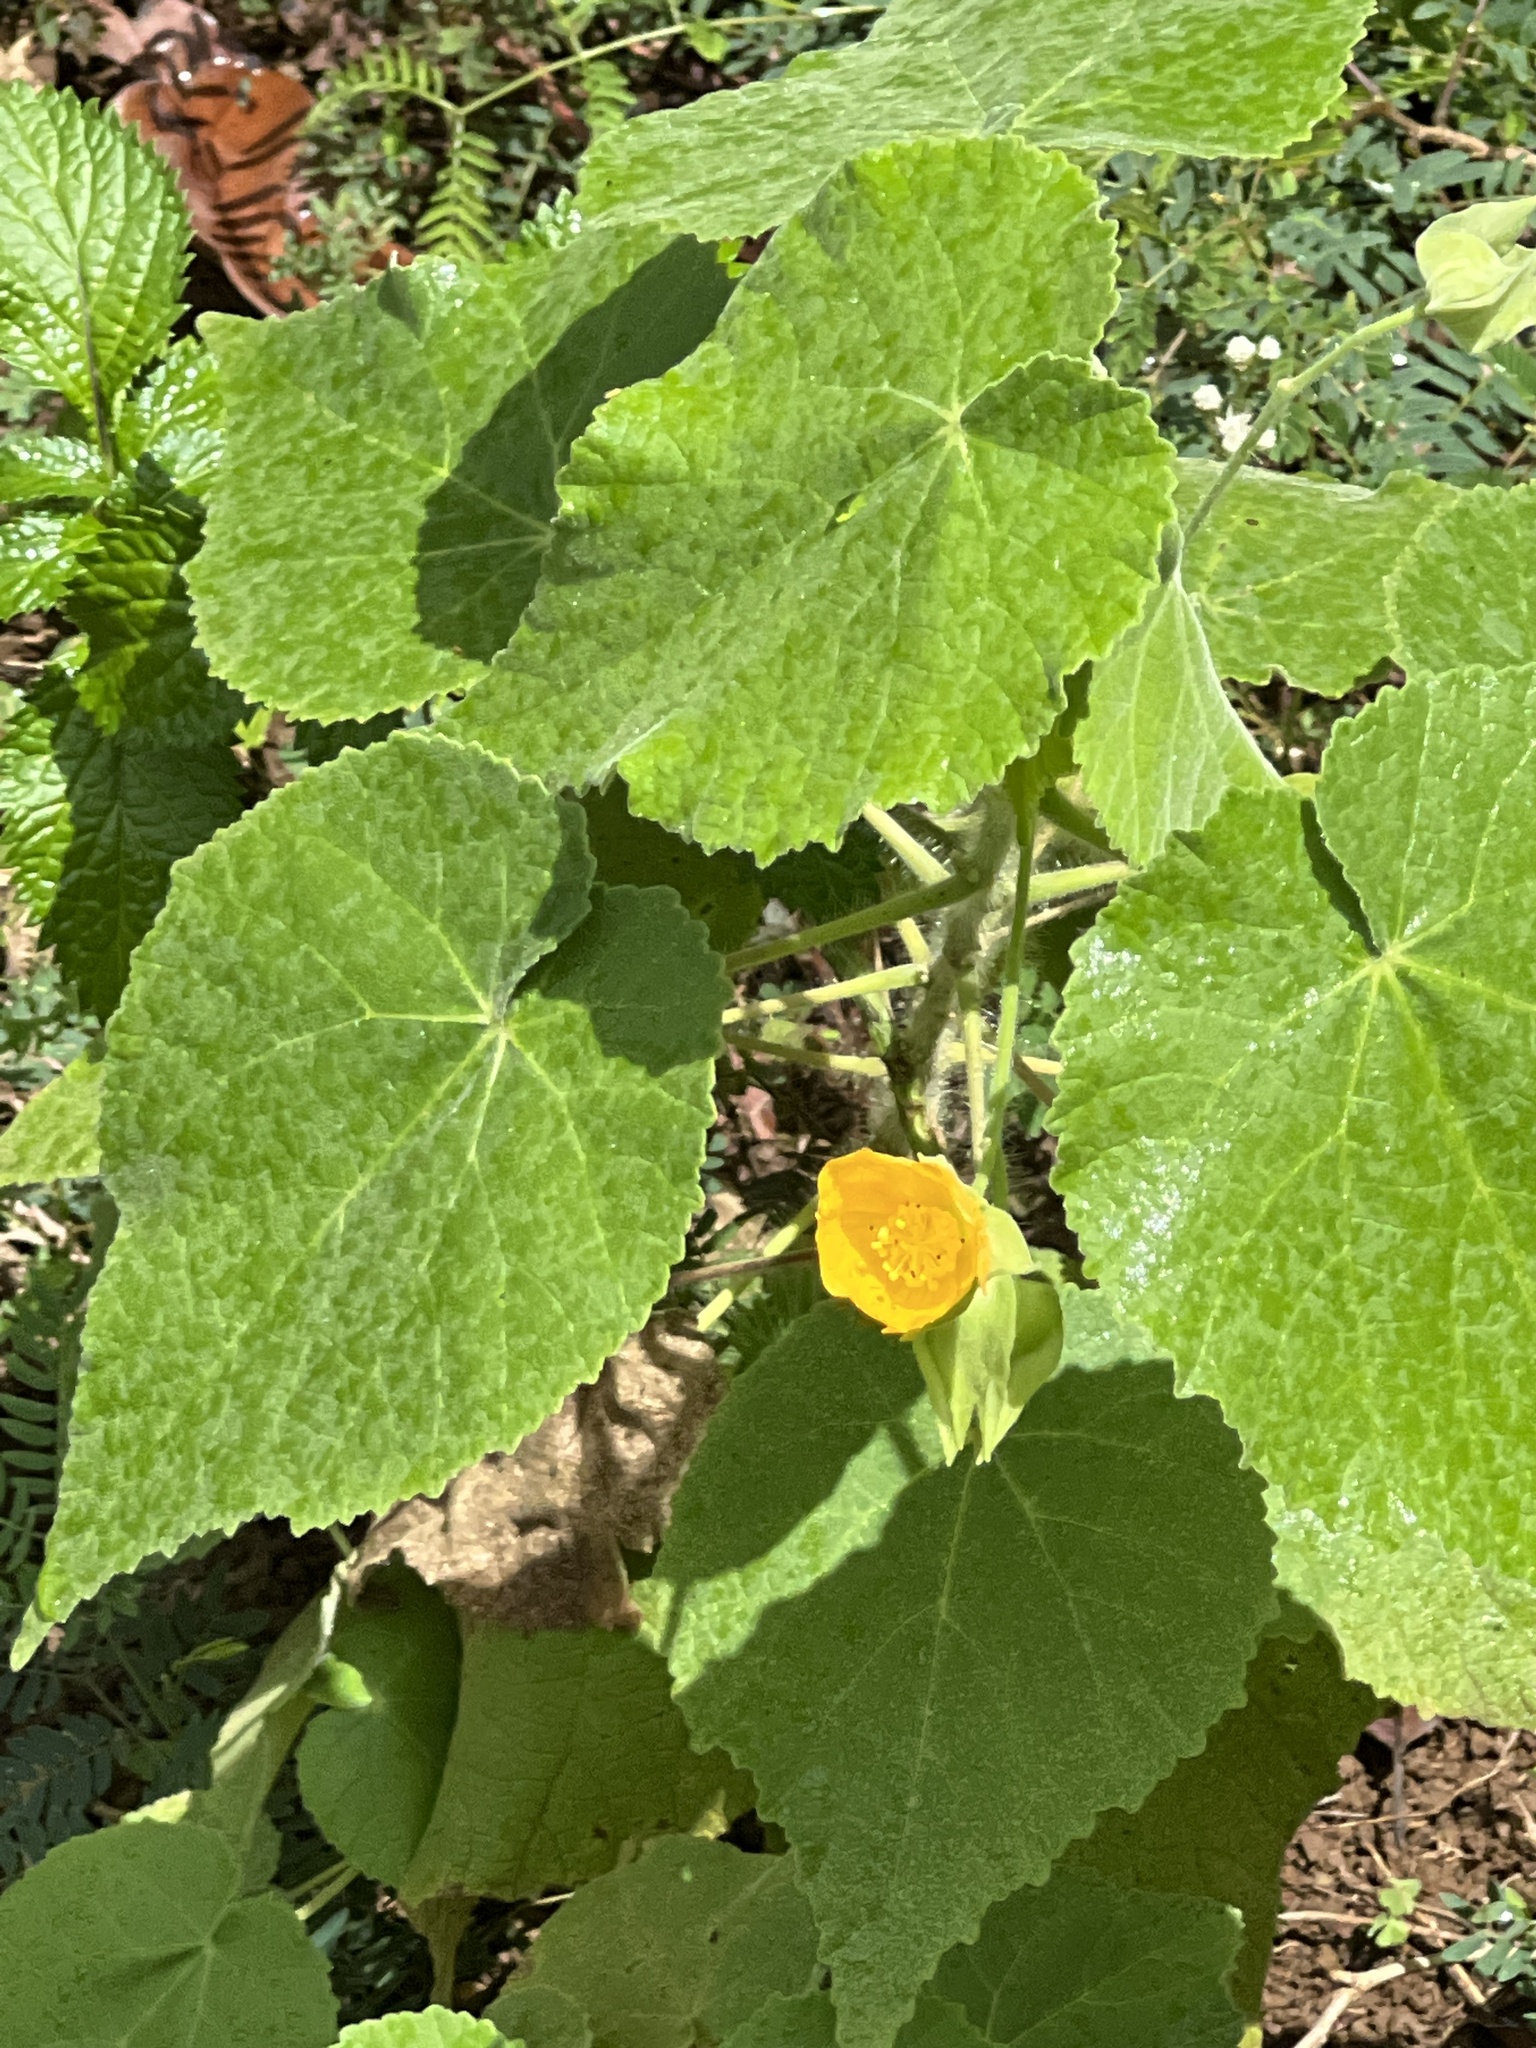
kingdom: Plantae
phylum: Tracheophyta
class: Magnoliopsida
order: Malvales
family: Malvaceae
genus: Abutilon
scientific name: Abutilon grandifolium
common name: Hairy abutilon
